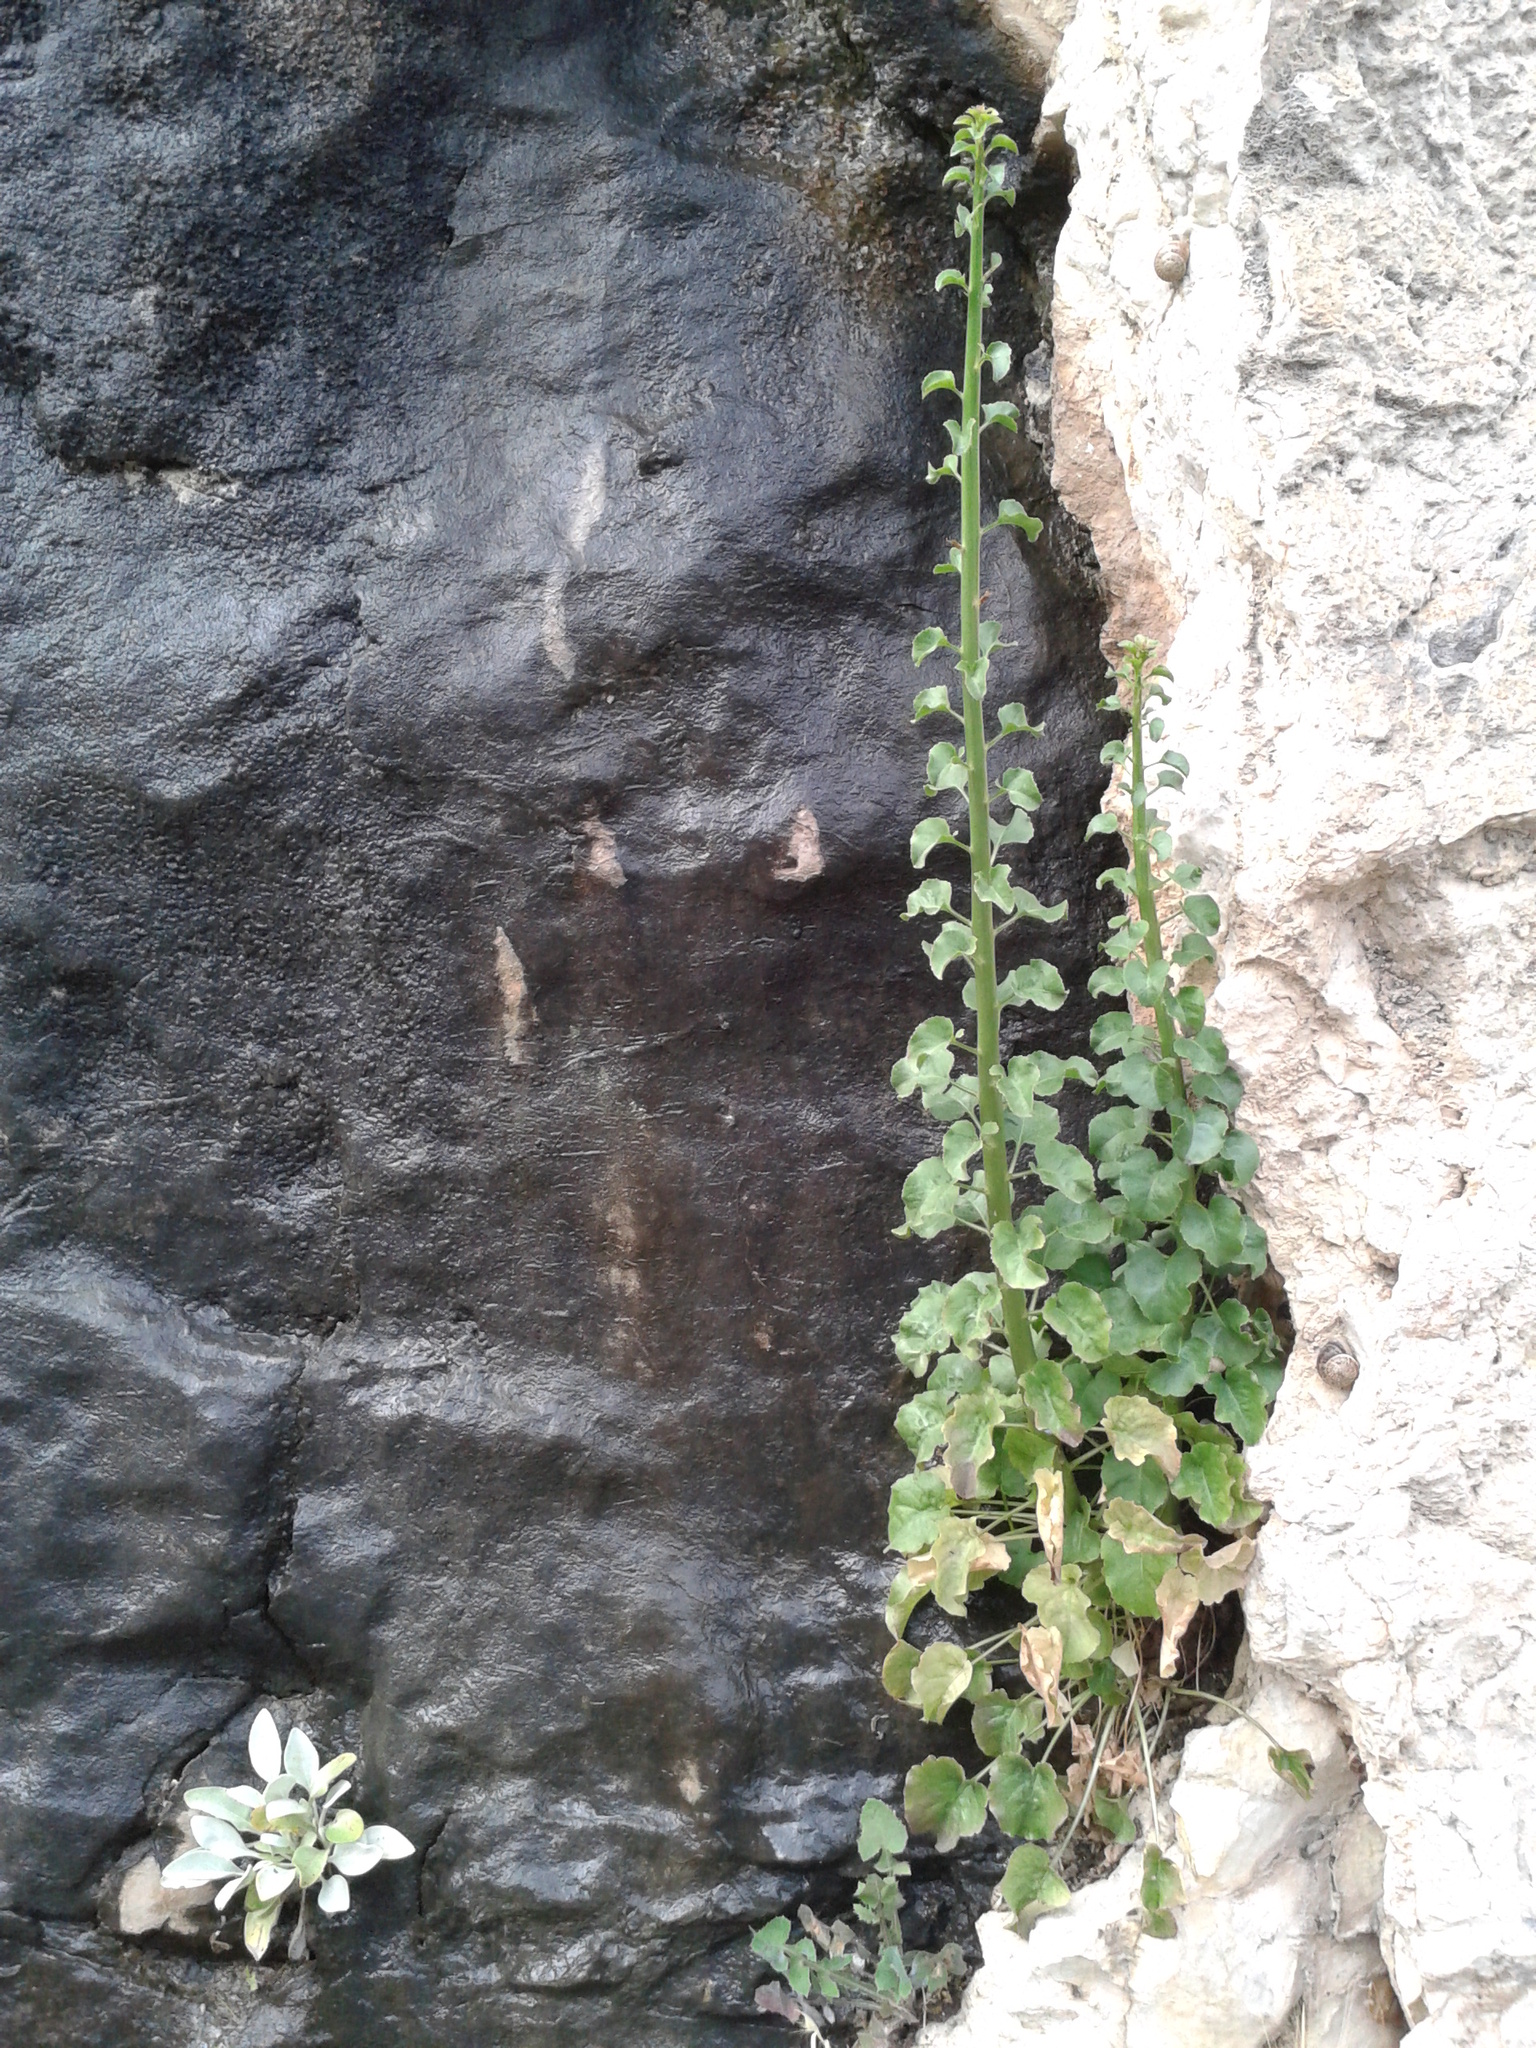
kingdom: Plantae
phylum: Tracheophyta
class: Magnoliopsida
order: Asterales
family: Campanulaceae
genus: Campanula
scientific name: Campanula pyramidalis
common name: Chimney bellflower
